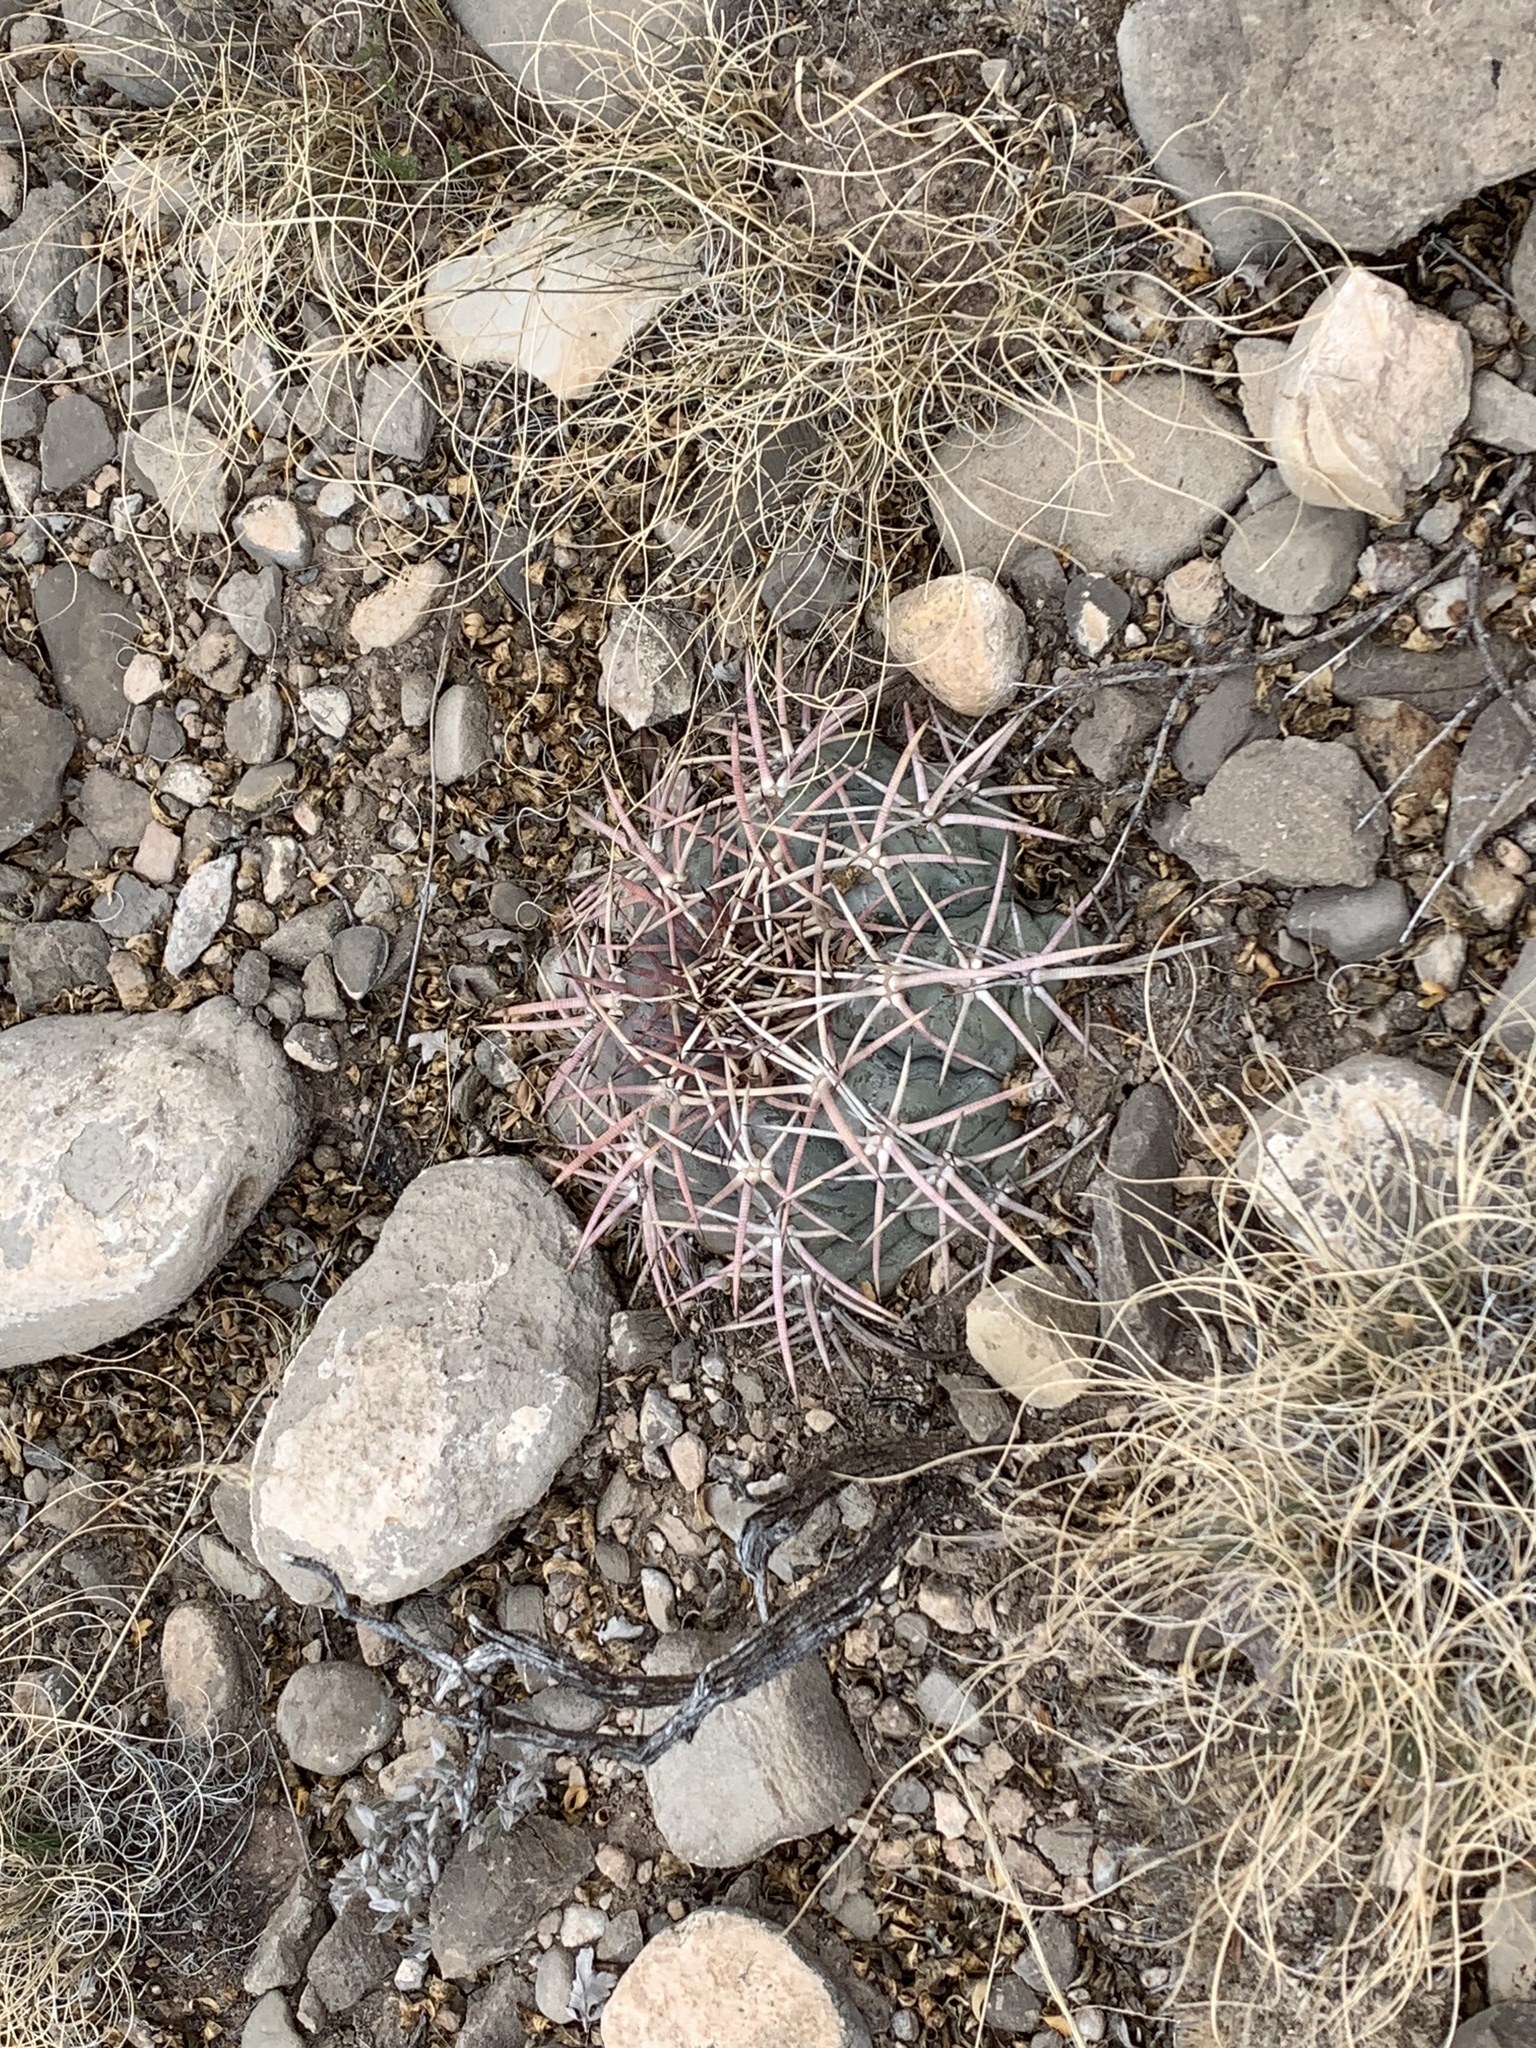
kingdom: Plantae
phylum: Tracheophyta
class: Magnoliopsida
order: Caryophyllales
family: Cactaceae
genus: Echinocactus
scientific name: Echinocactus horizonthalonius
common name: Devilshead
